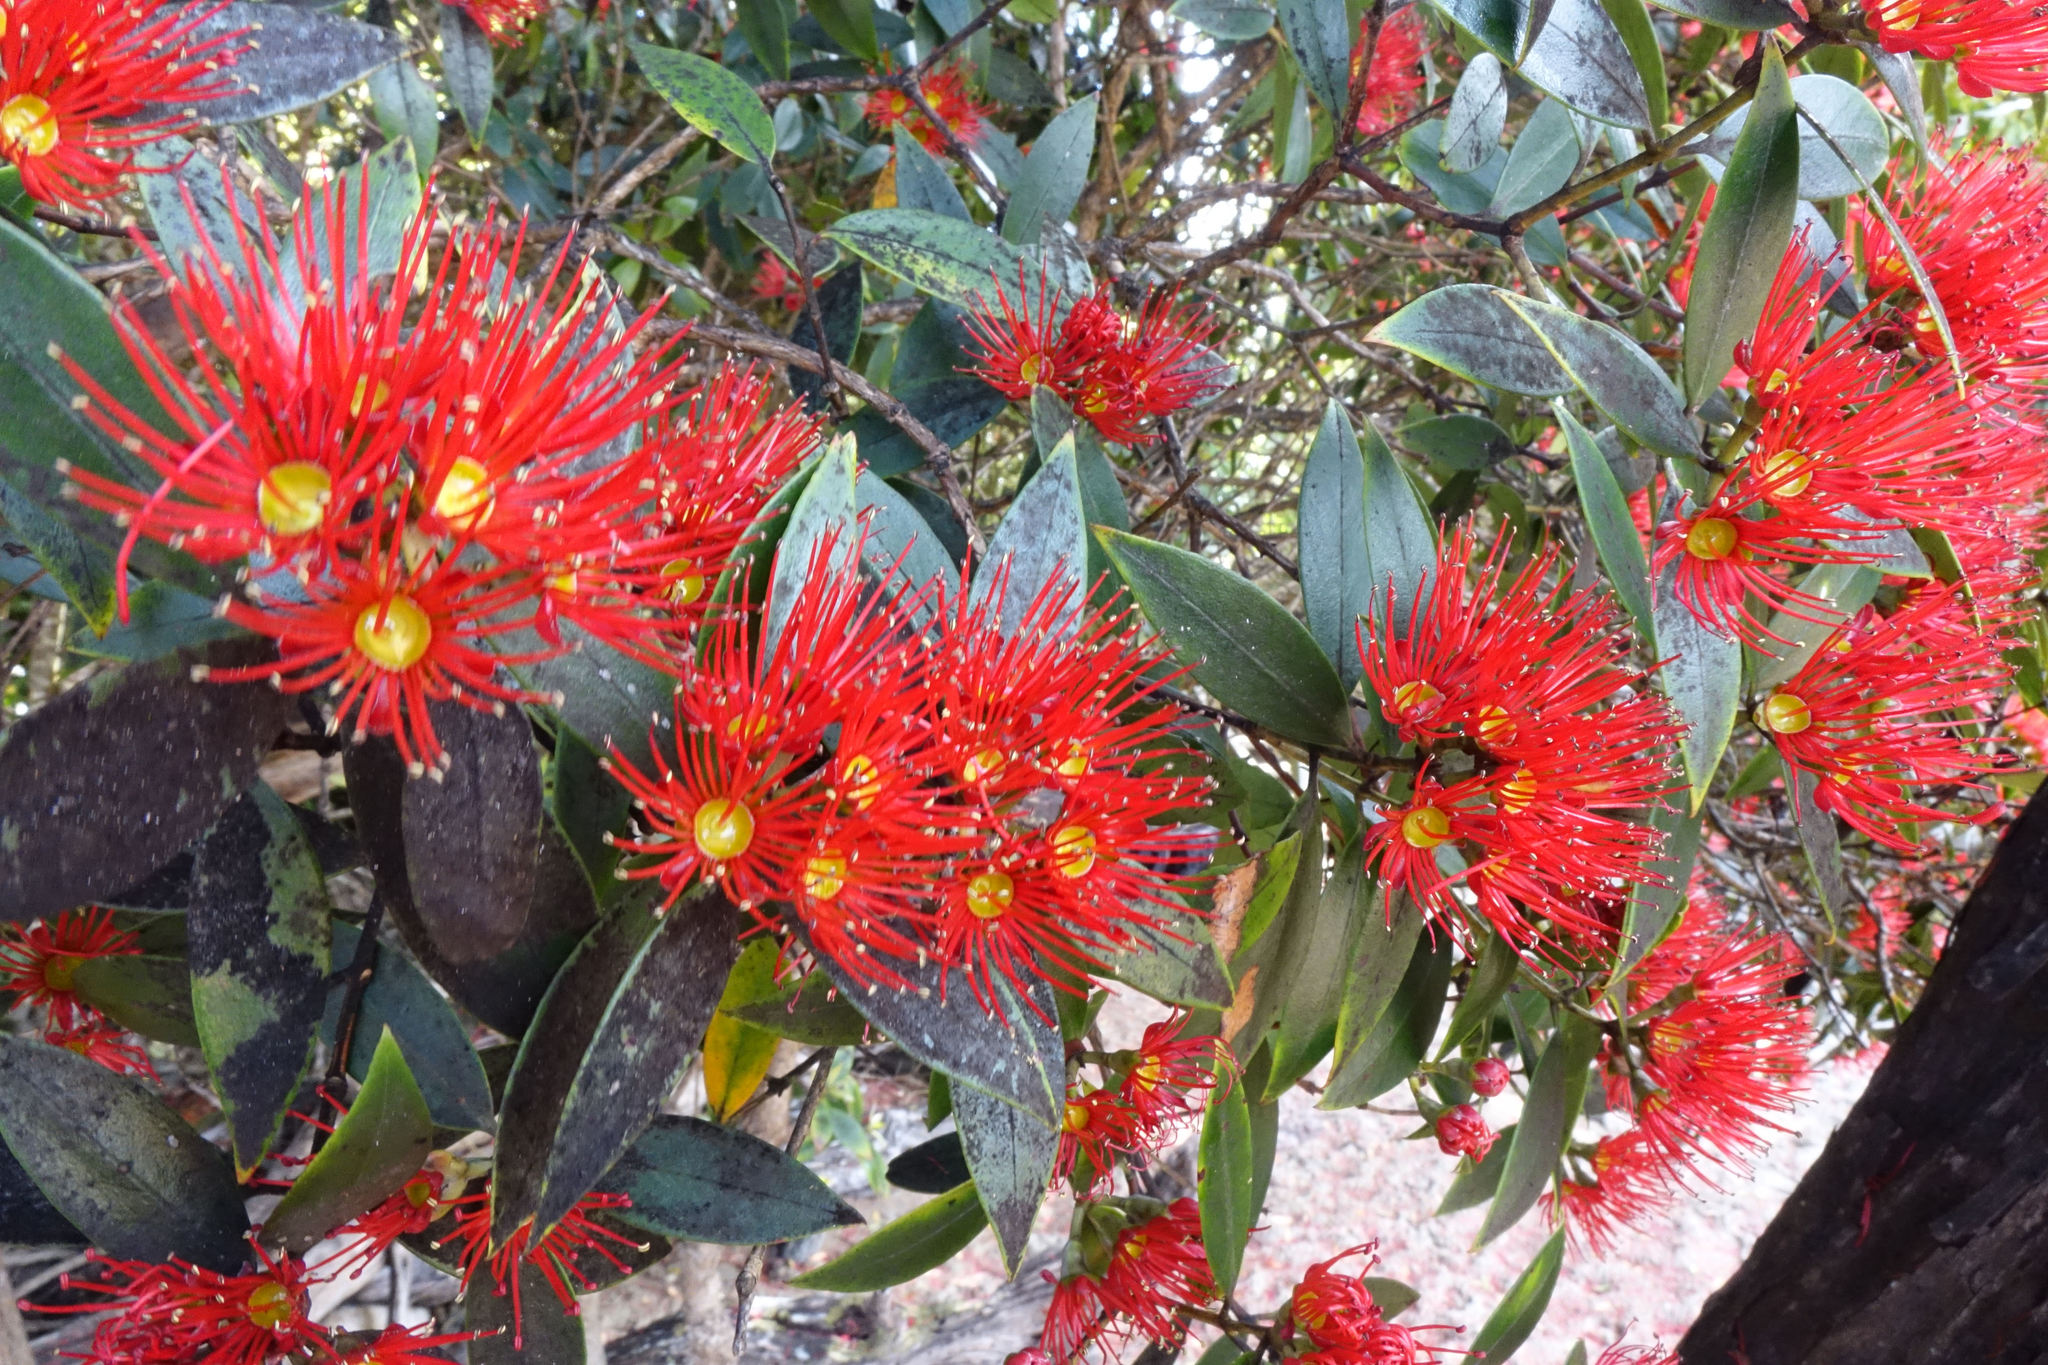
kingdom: Plantae
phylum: Tracheophyta
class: Magnoliopsida
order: Myrtales
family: Myrtaceae
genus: Metrosideros
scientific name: Metrosideros umbellata
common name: Southern rata
